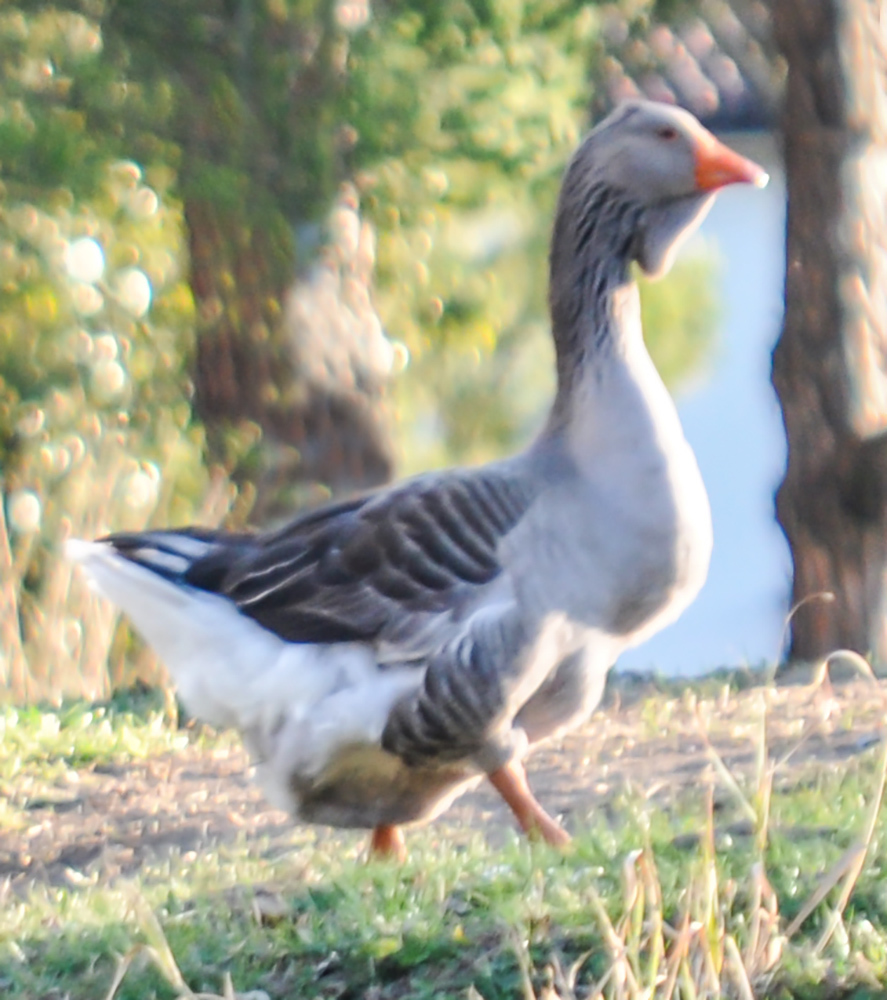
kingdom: Animalia
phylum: Chordata
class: Aves
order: Anseriformes
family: Anatidae
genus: Anser
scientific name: Anser anser
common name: Greylag goose
